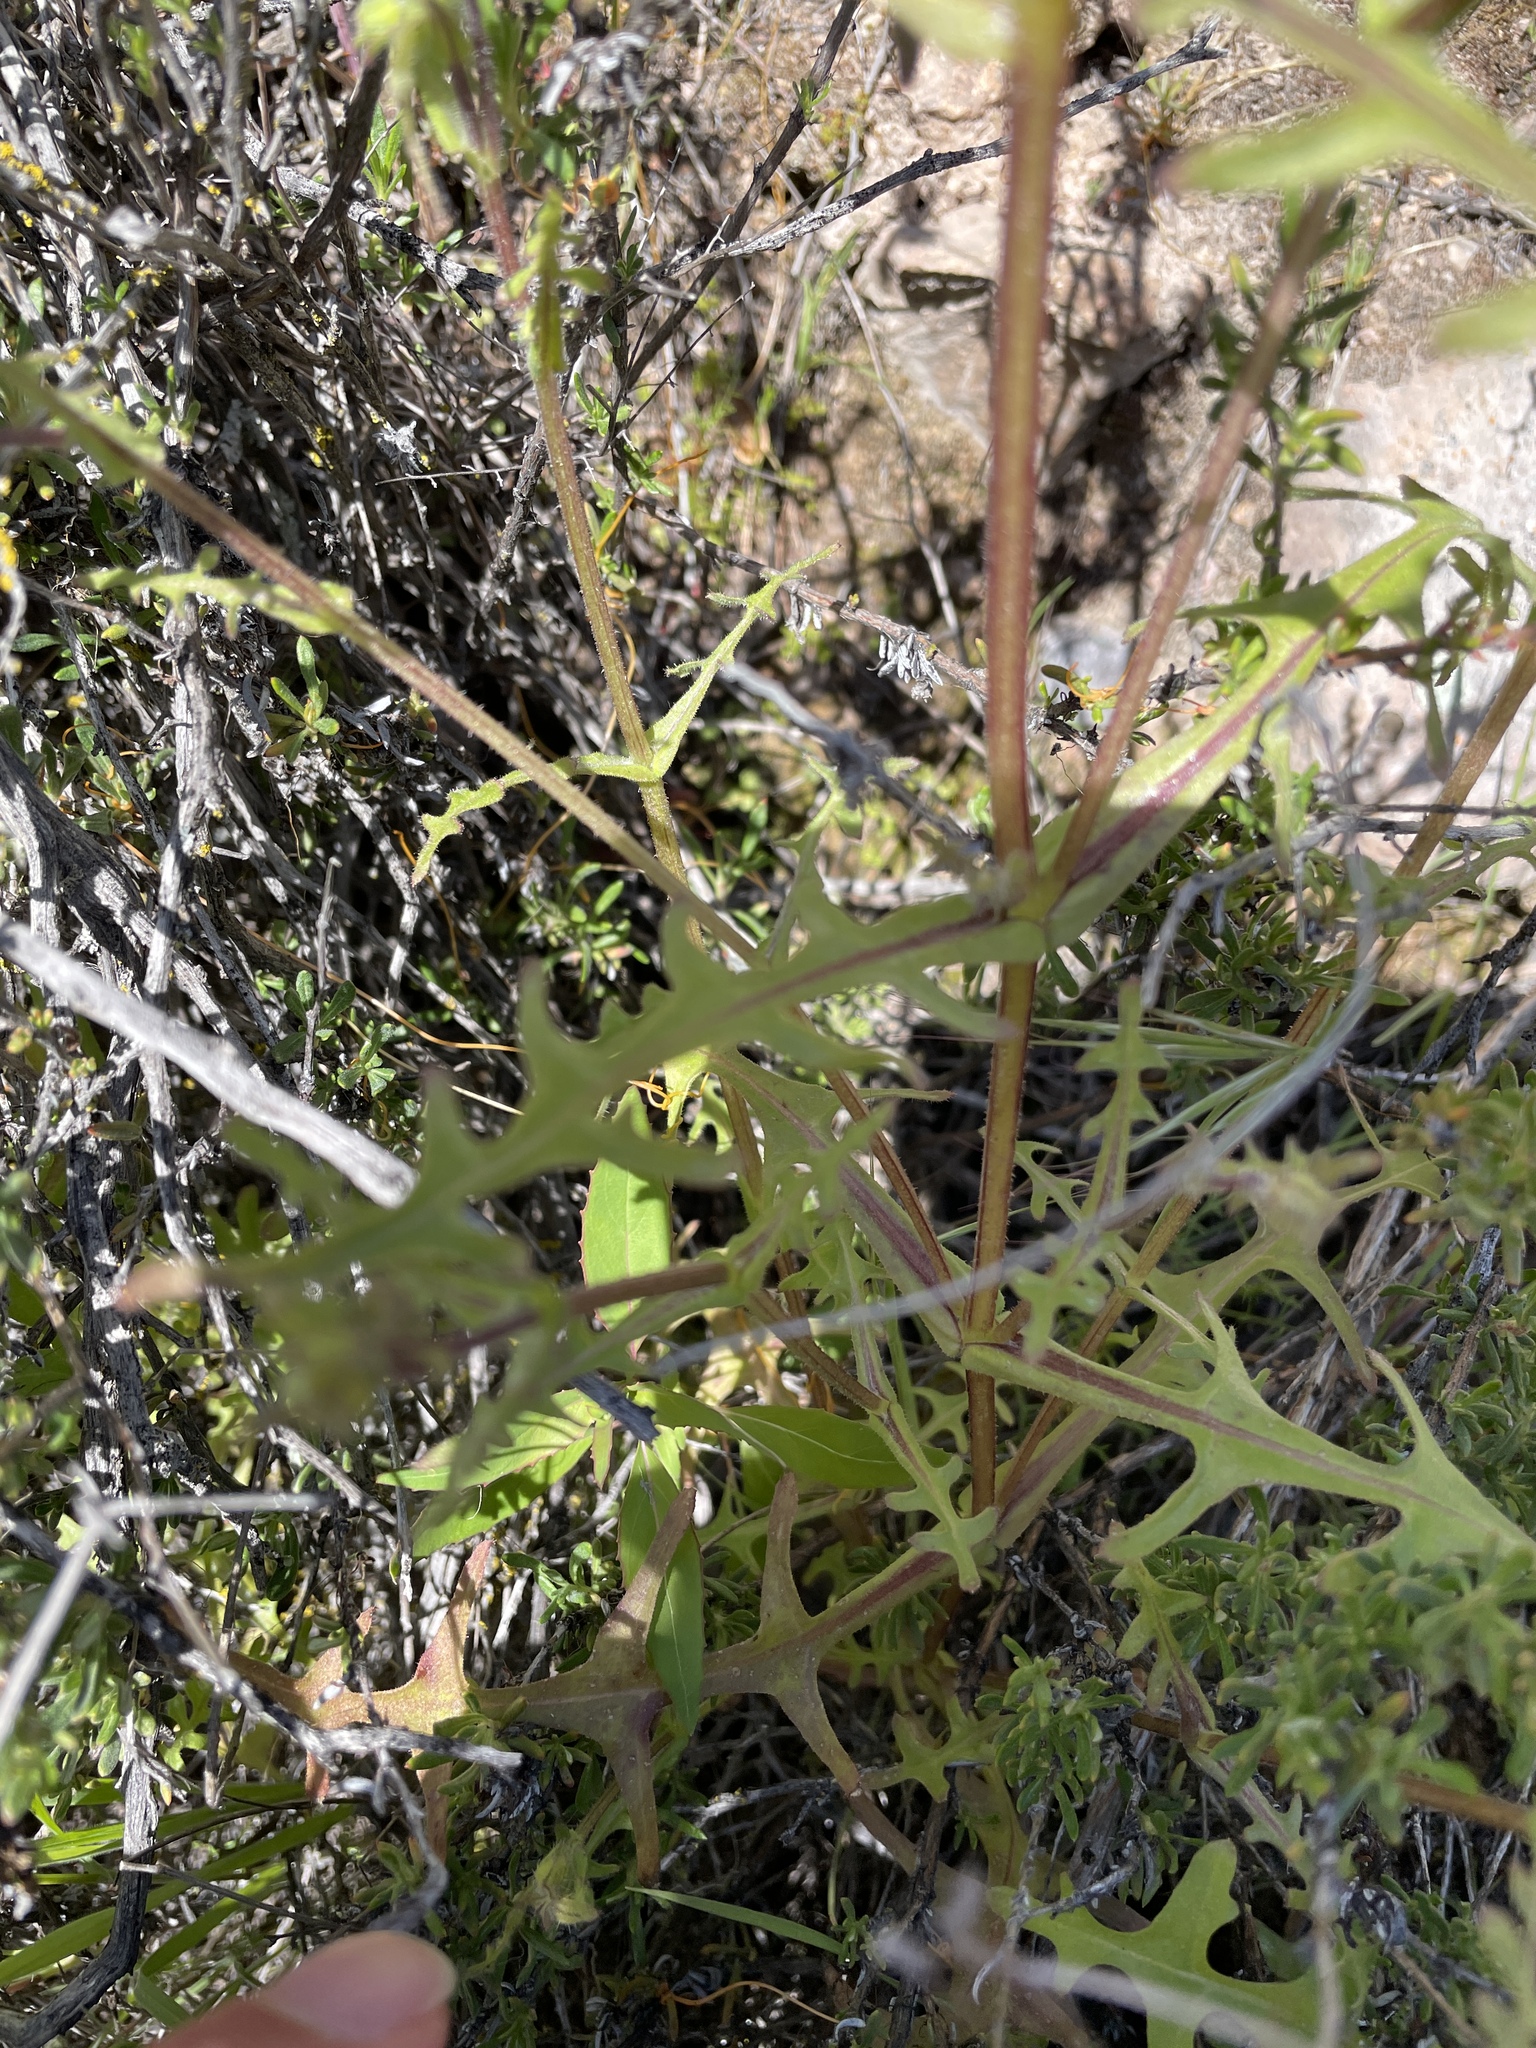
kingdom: Plantae
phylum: Tracheophyta
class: Magnoliopsida
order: Boraginales
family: Hydrophyllaceae
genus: Pholistoma
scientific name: Pholistoma auritum
